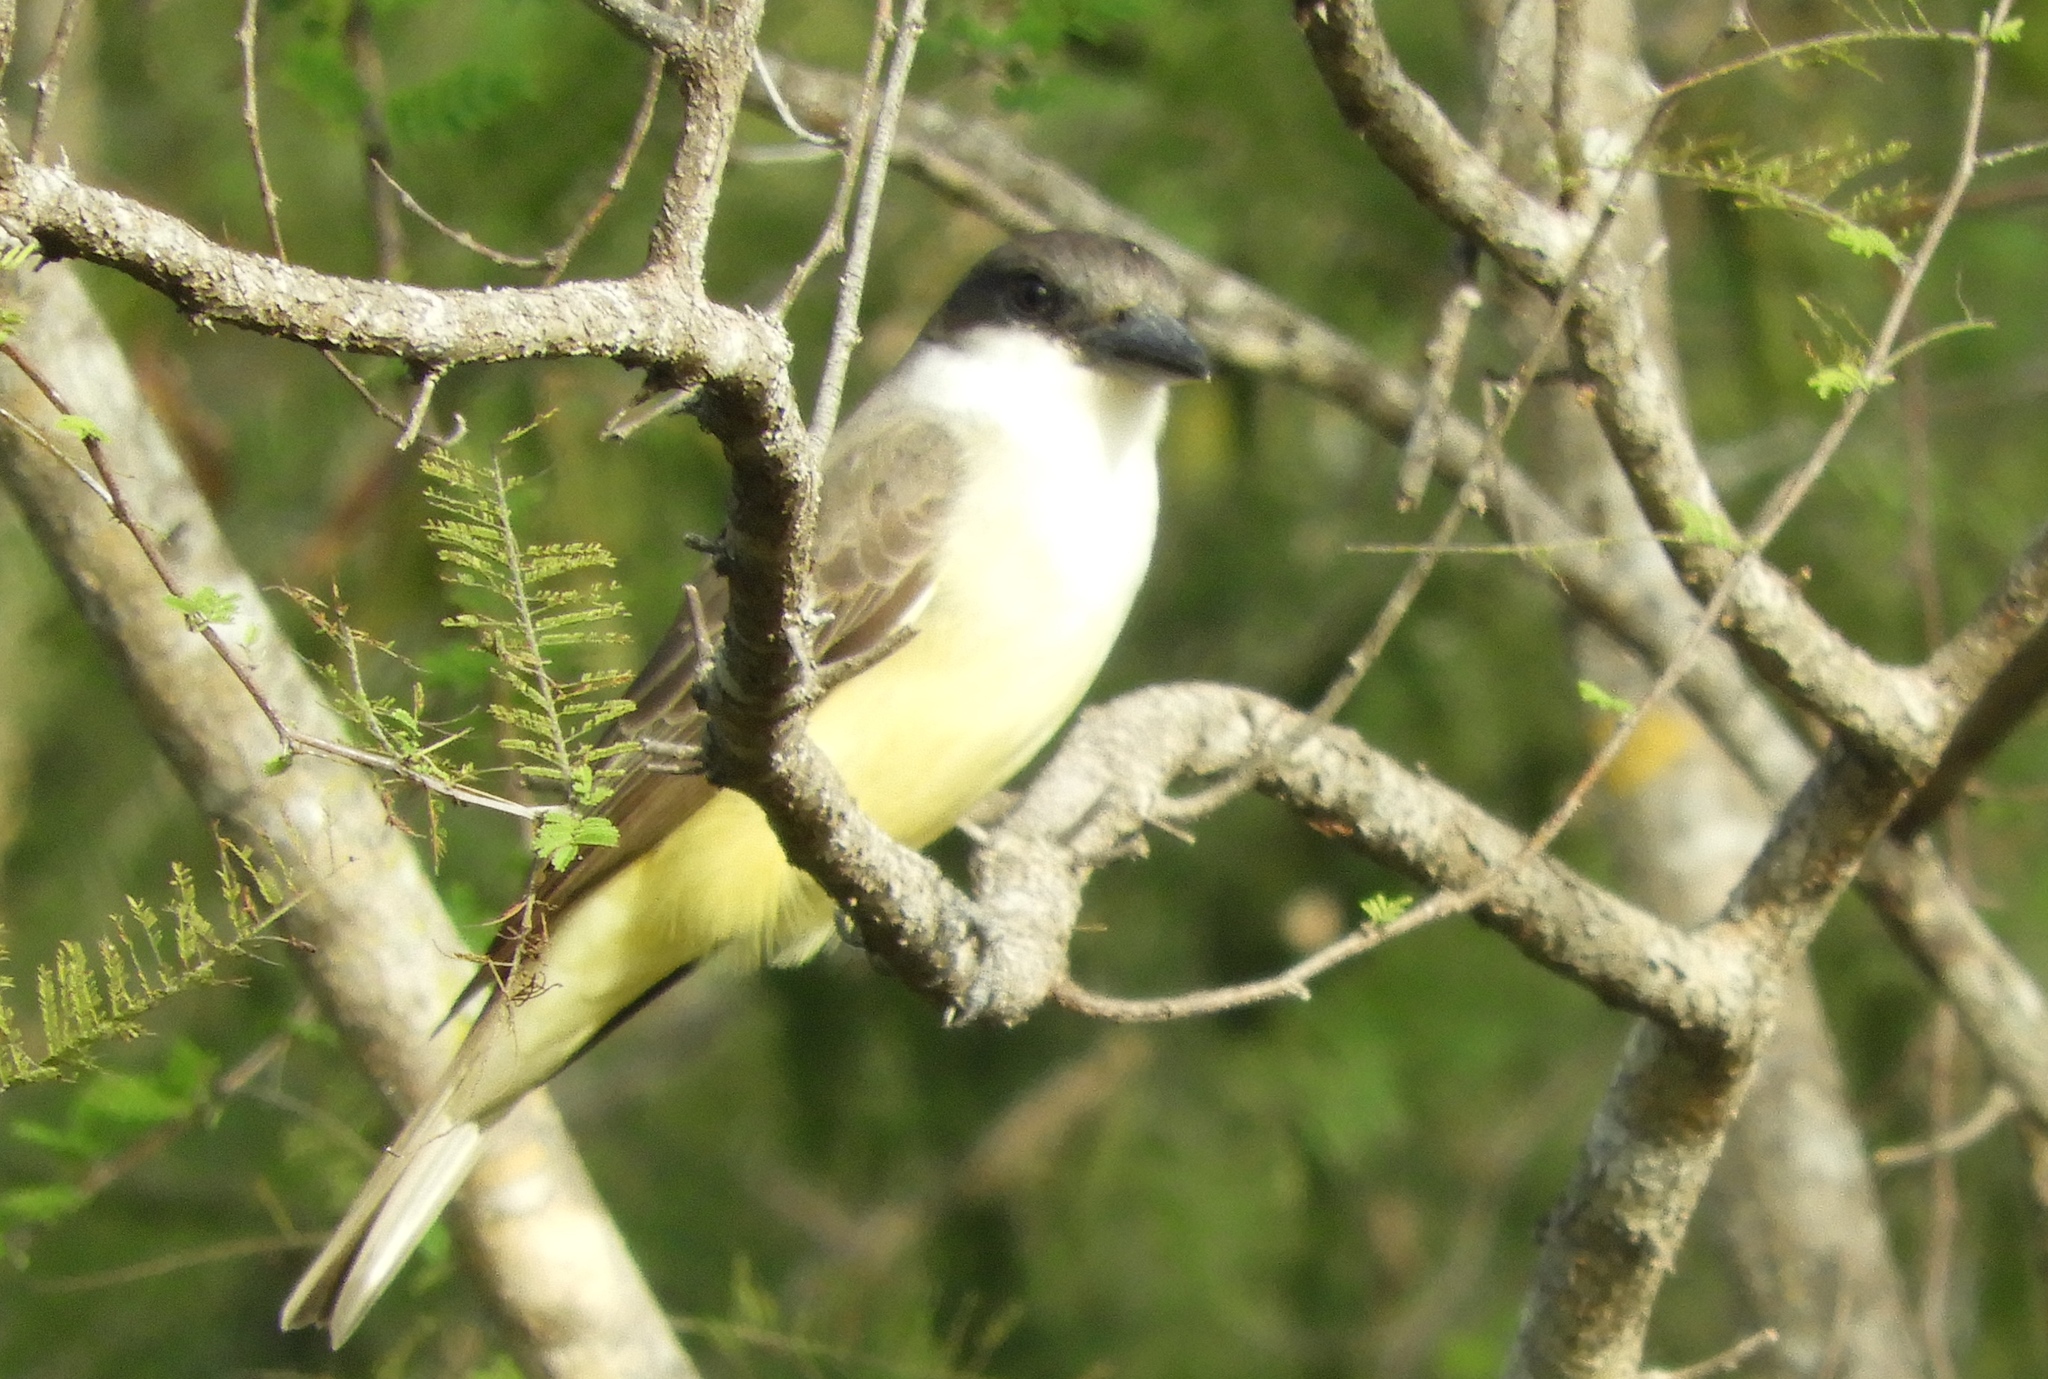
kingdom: Animalia
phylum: Chordata
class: Aves
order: Passeriformes
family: Tyrannidae
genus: Tyrannus
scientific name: Tyrannus crassirostris
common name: Thick-billed kingbird
